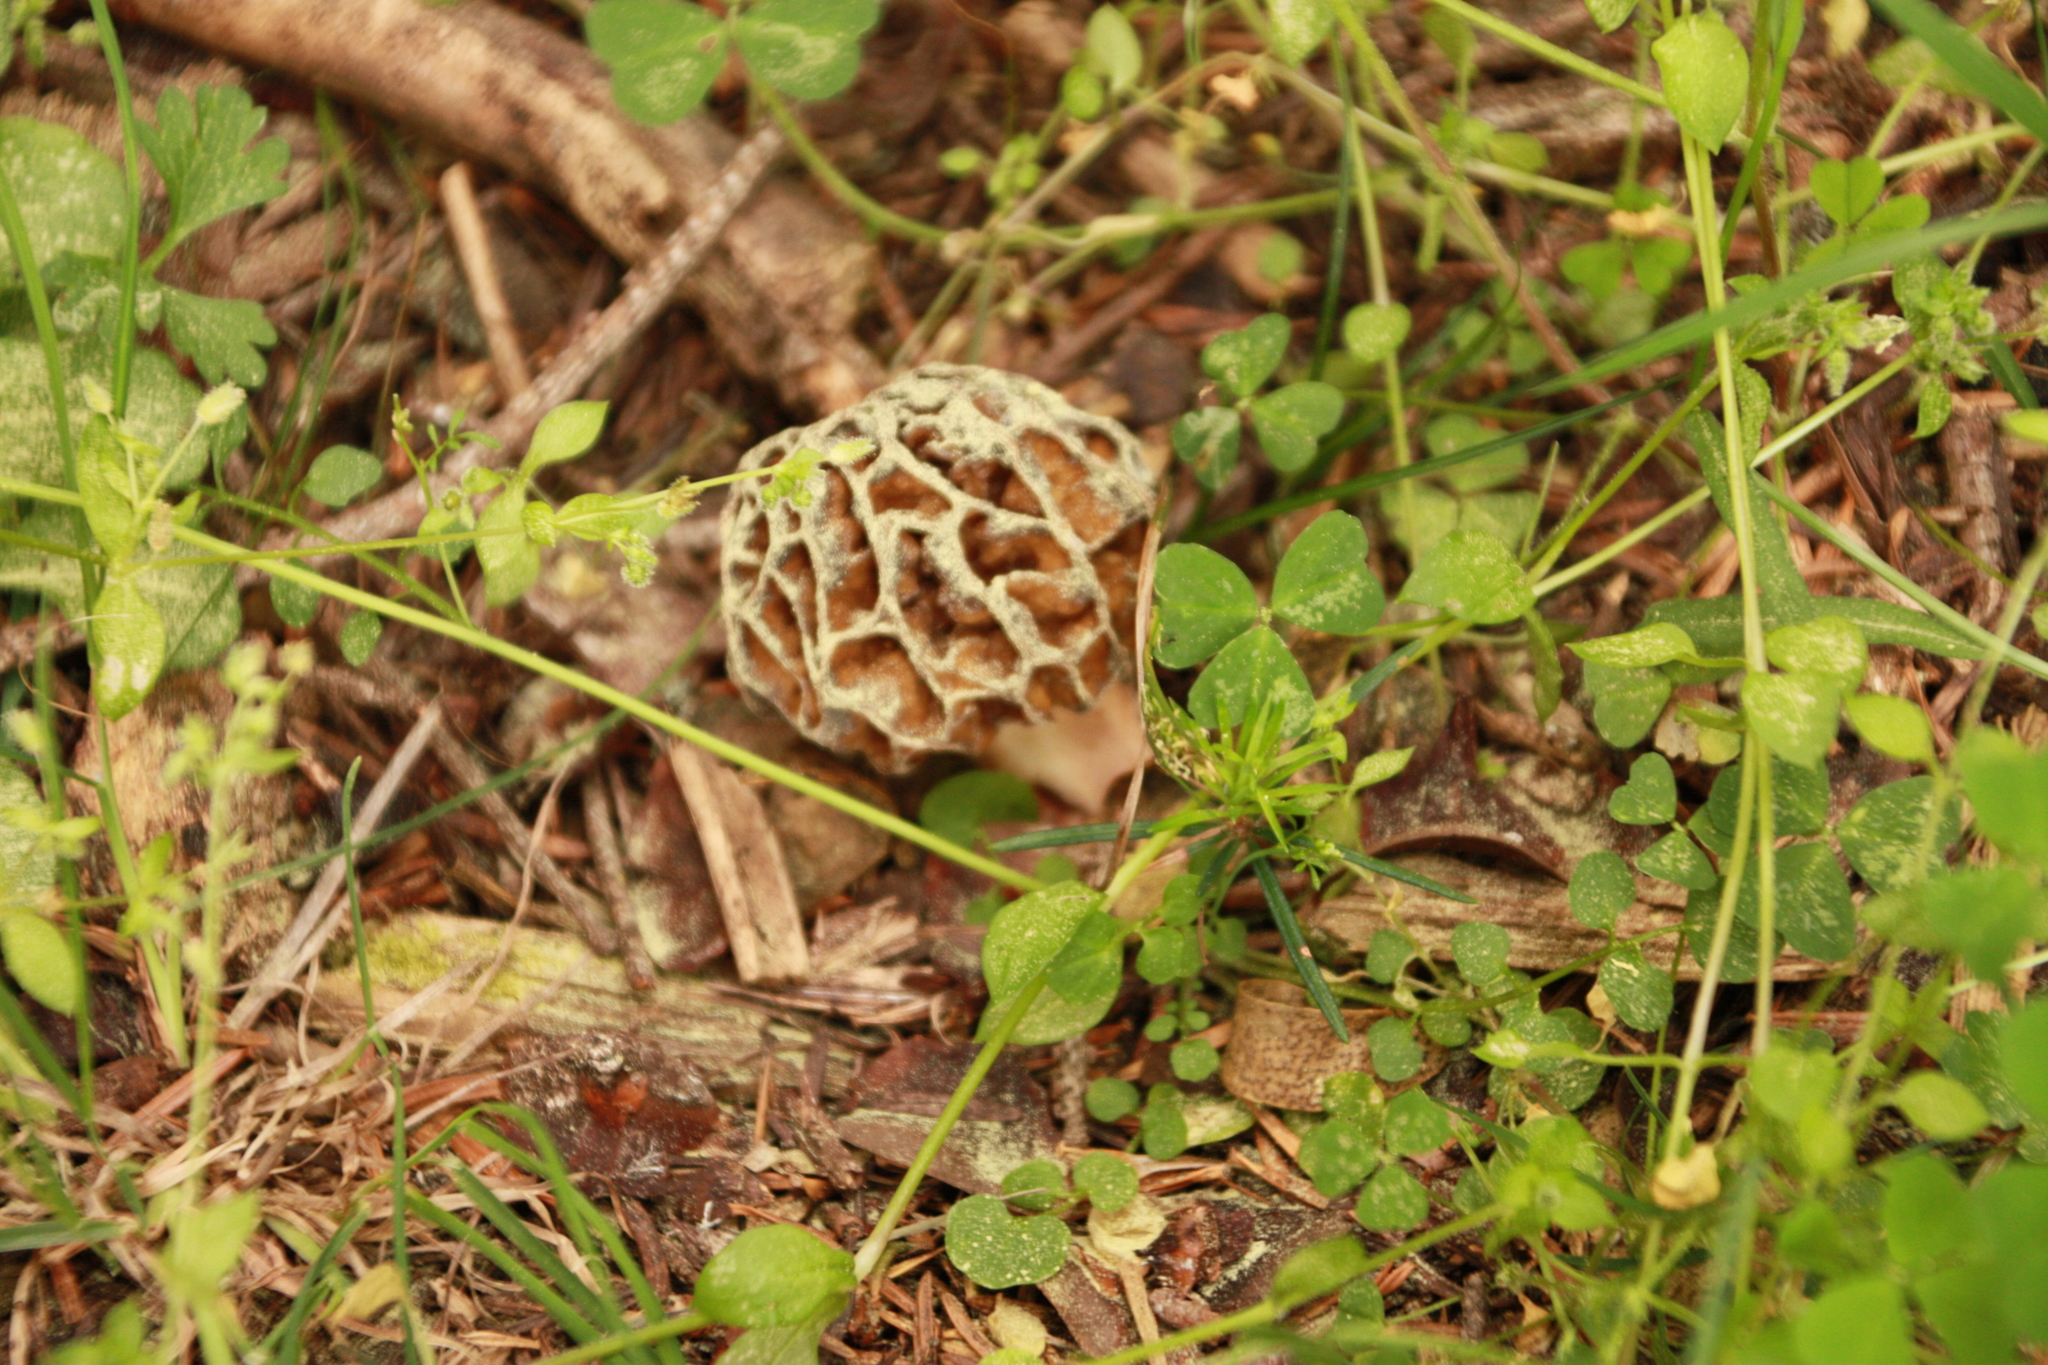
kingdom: Fungi
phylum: Ascomycota
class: Pezizomycetes
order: Pezizales
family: Morchellaceae
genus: Morchella
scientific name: Morchella
